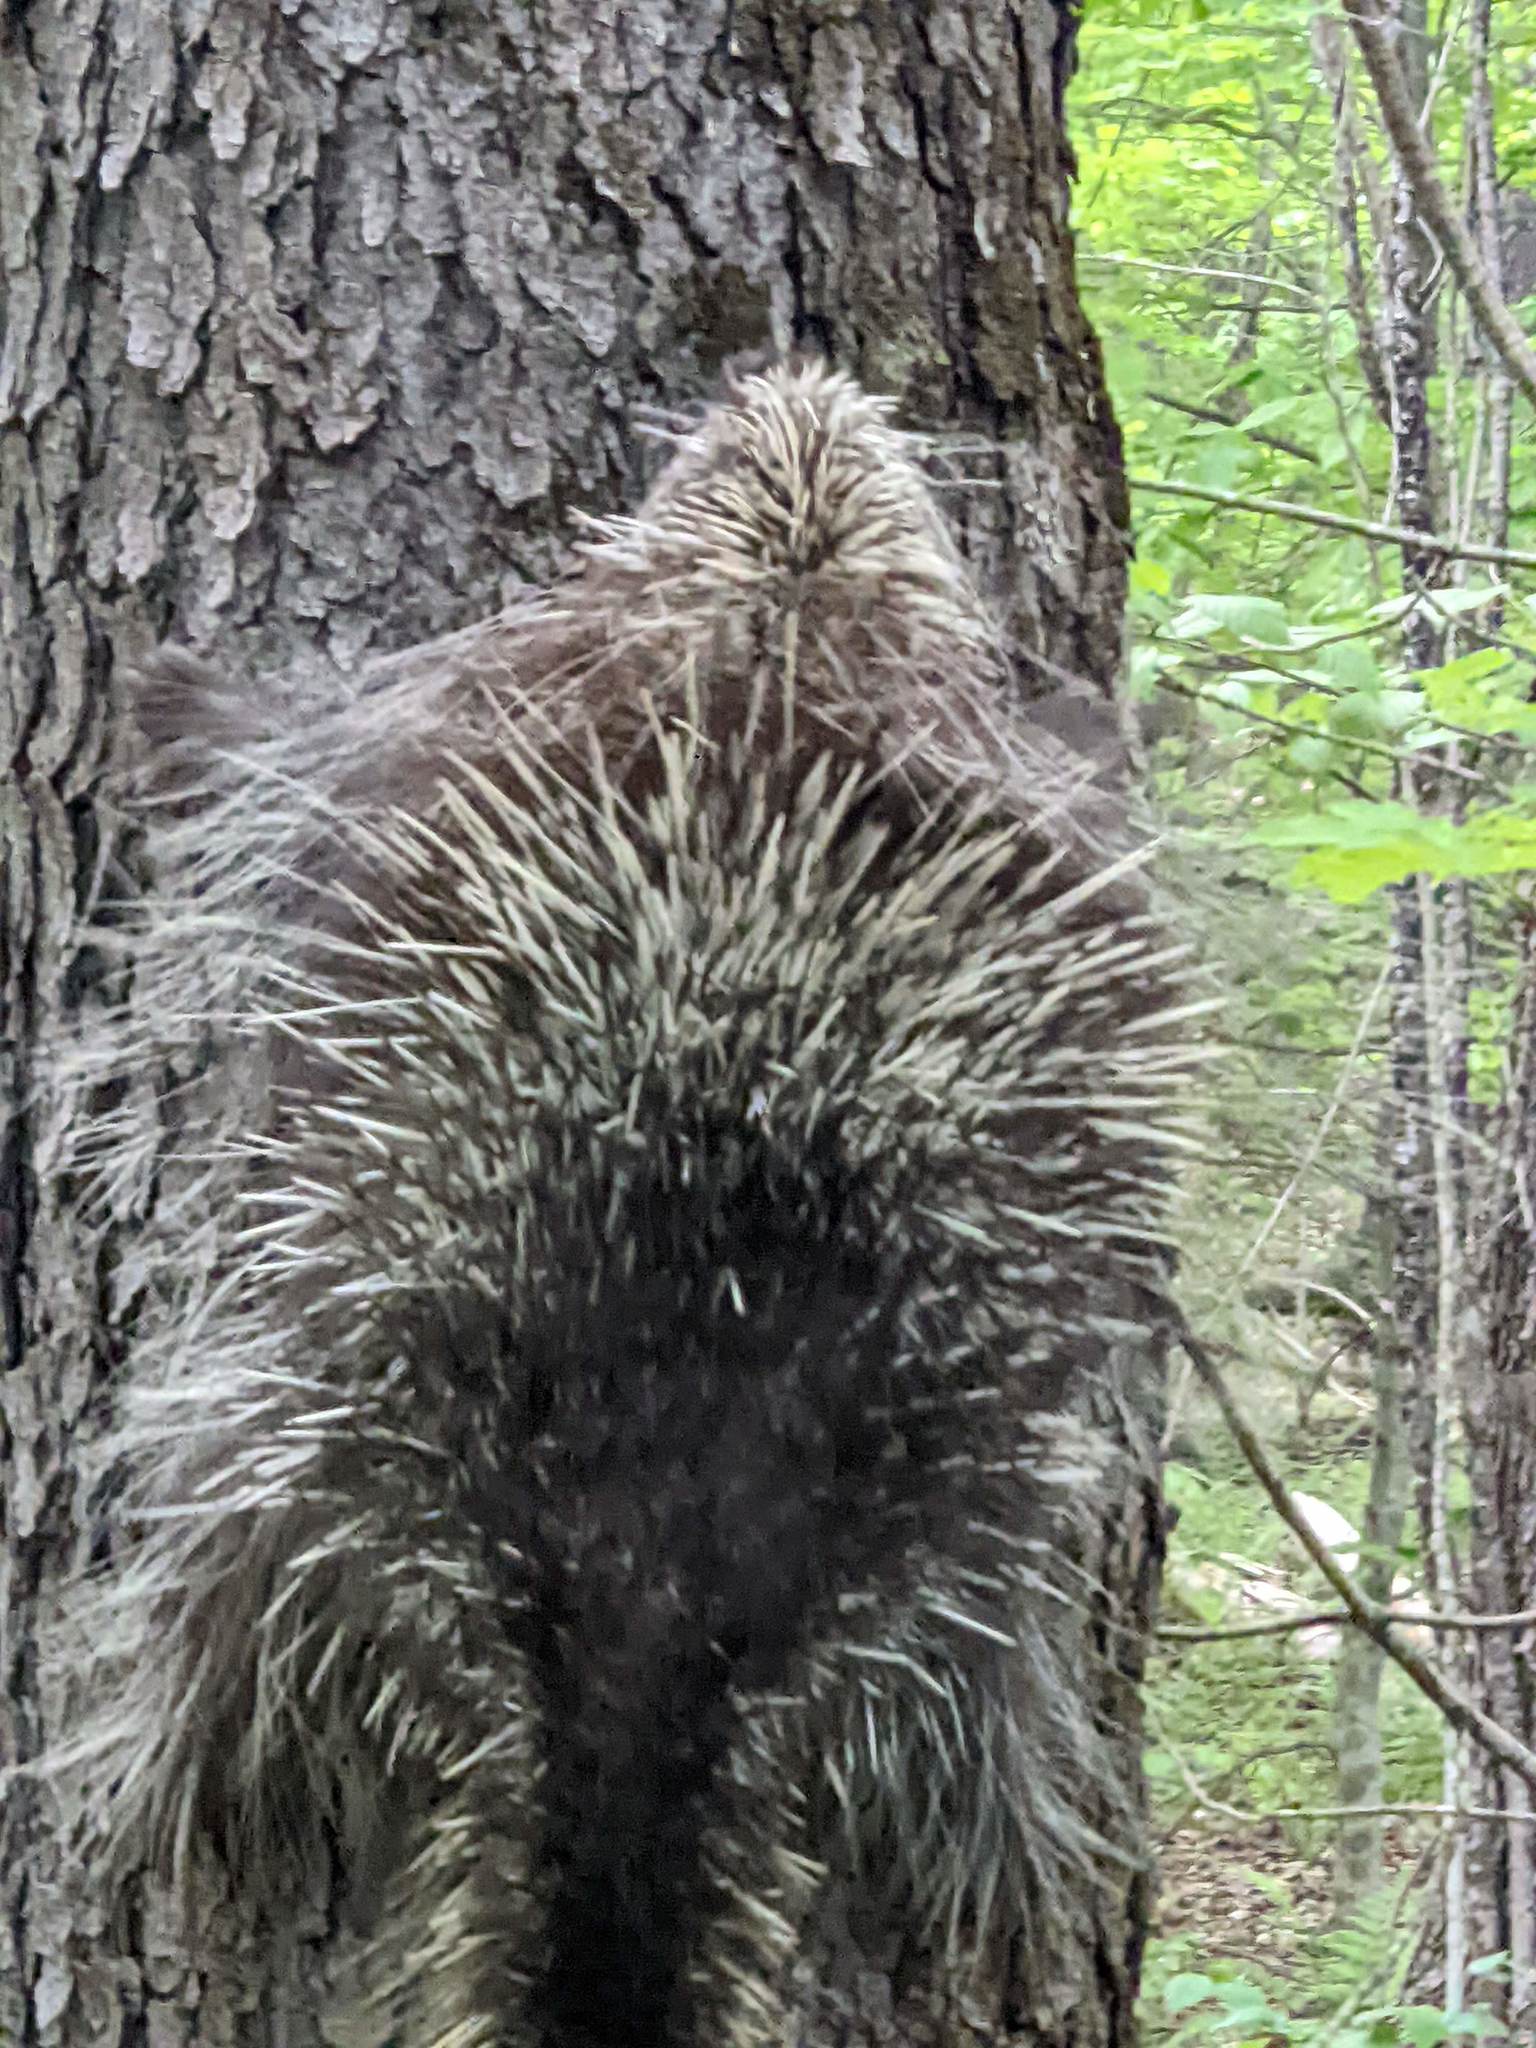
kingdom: Animalia
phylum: Chordata
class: Mammalia
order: Rodentia
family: Erethizontidae
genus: Erethizon
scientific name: Erethizon dorsatus
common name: North american porcupine
